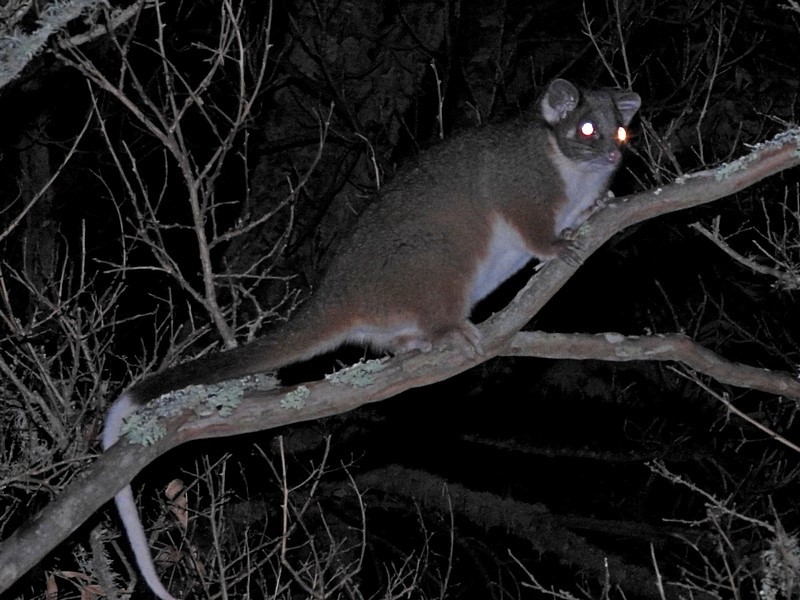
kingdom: Animalia
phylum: Chordata
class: Mammalia
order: Diprotodontia
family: Pseudocheiridae
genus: Pseudocheirus
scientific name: Pseudocheirus peregrinus
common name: Common ringtail possum
